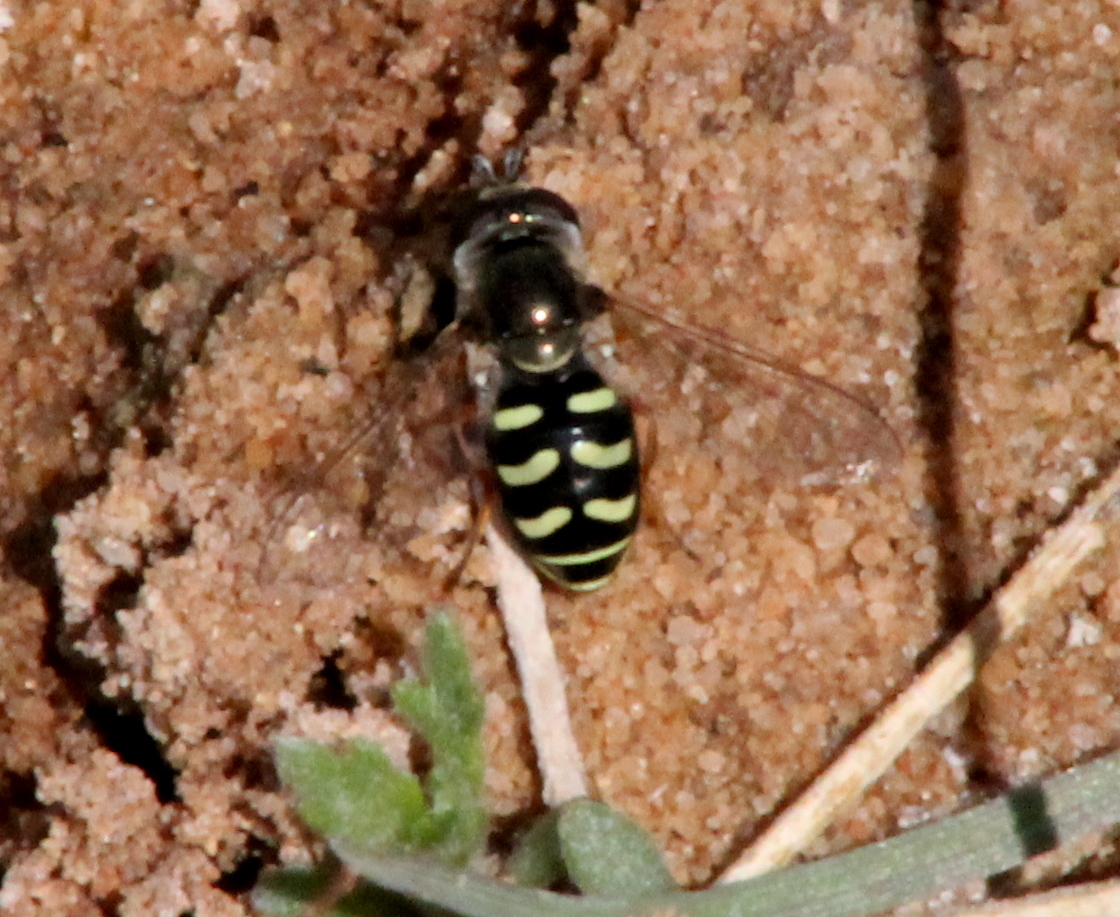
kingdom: Animalia
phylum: Arthropoda
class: Insecta
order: Diptera
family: Syrphidae
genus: Eupeodes
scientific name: Eupeodes volucris
